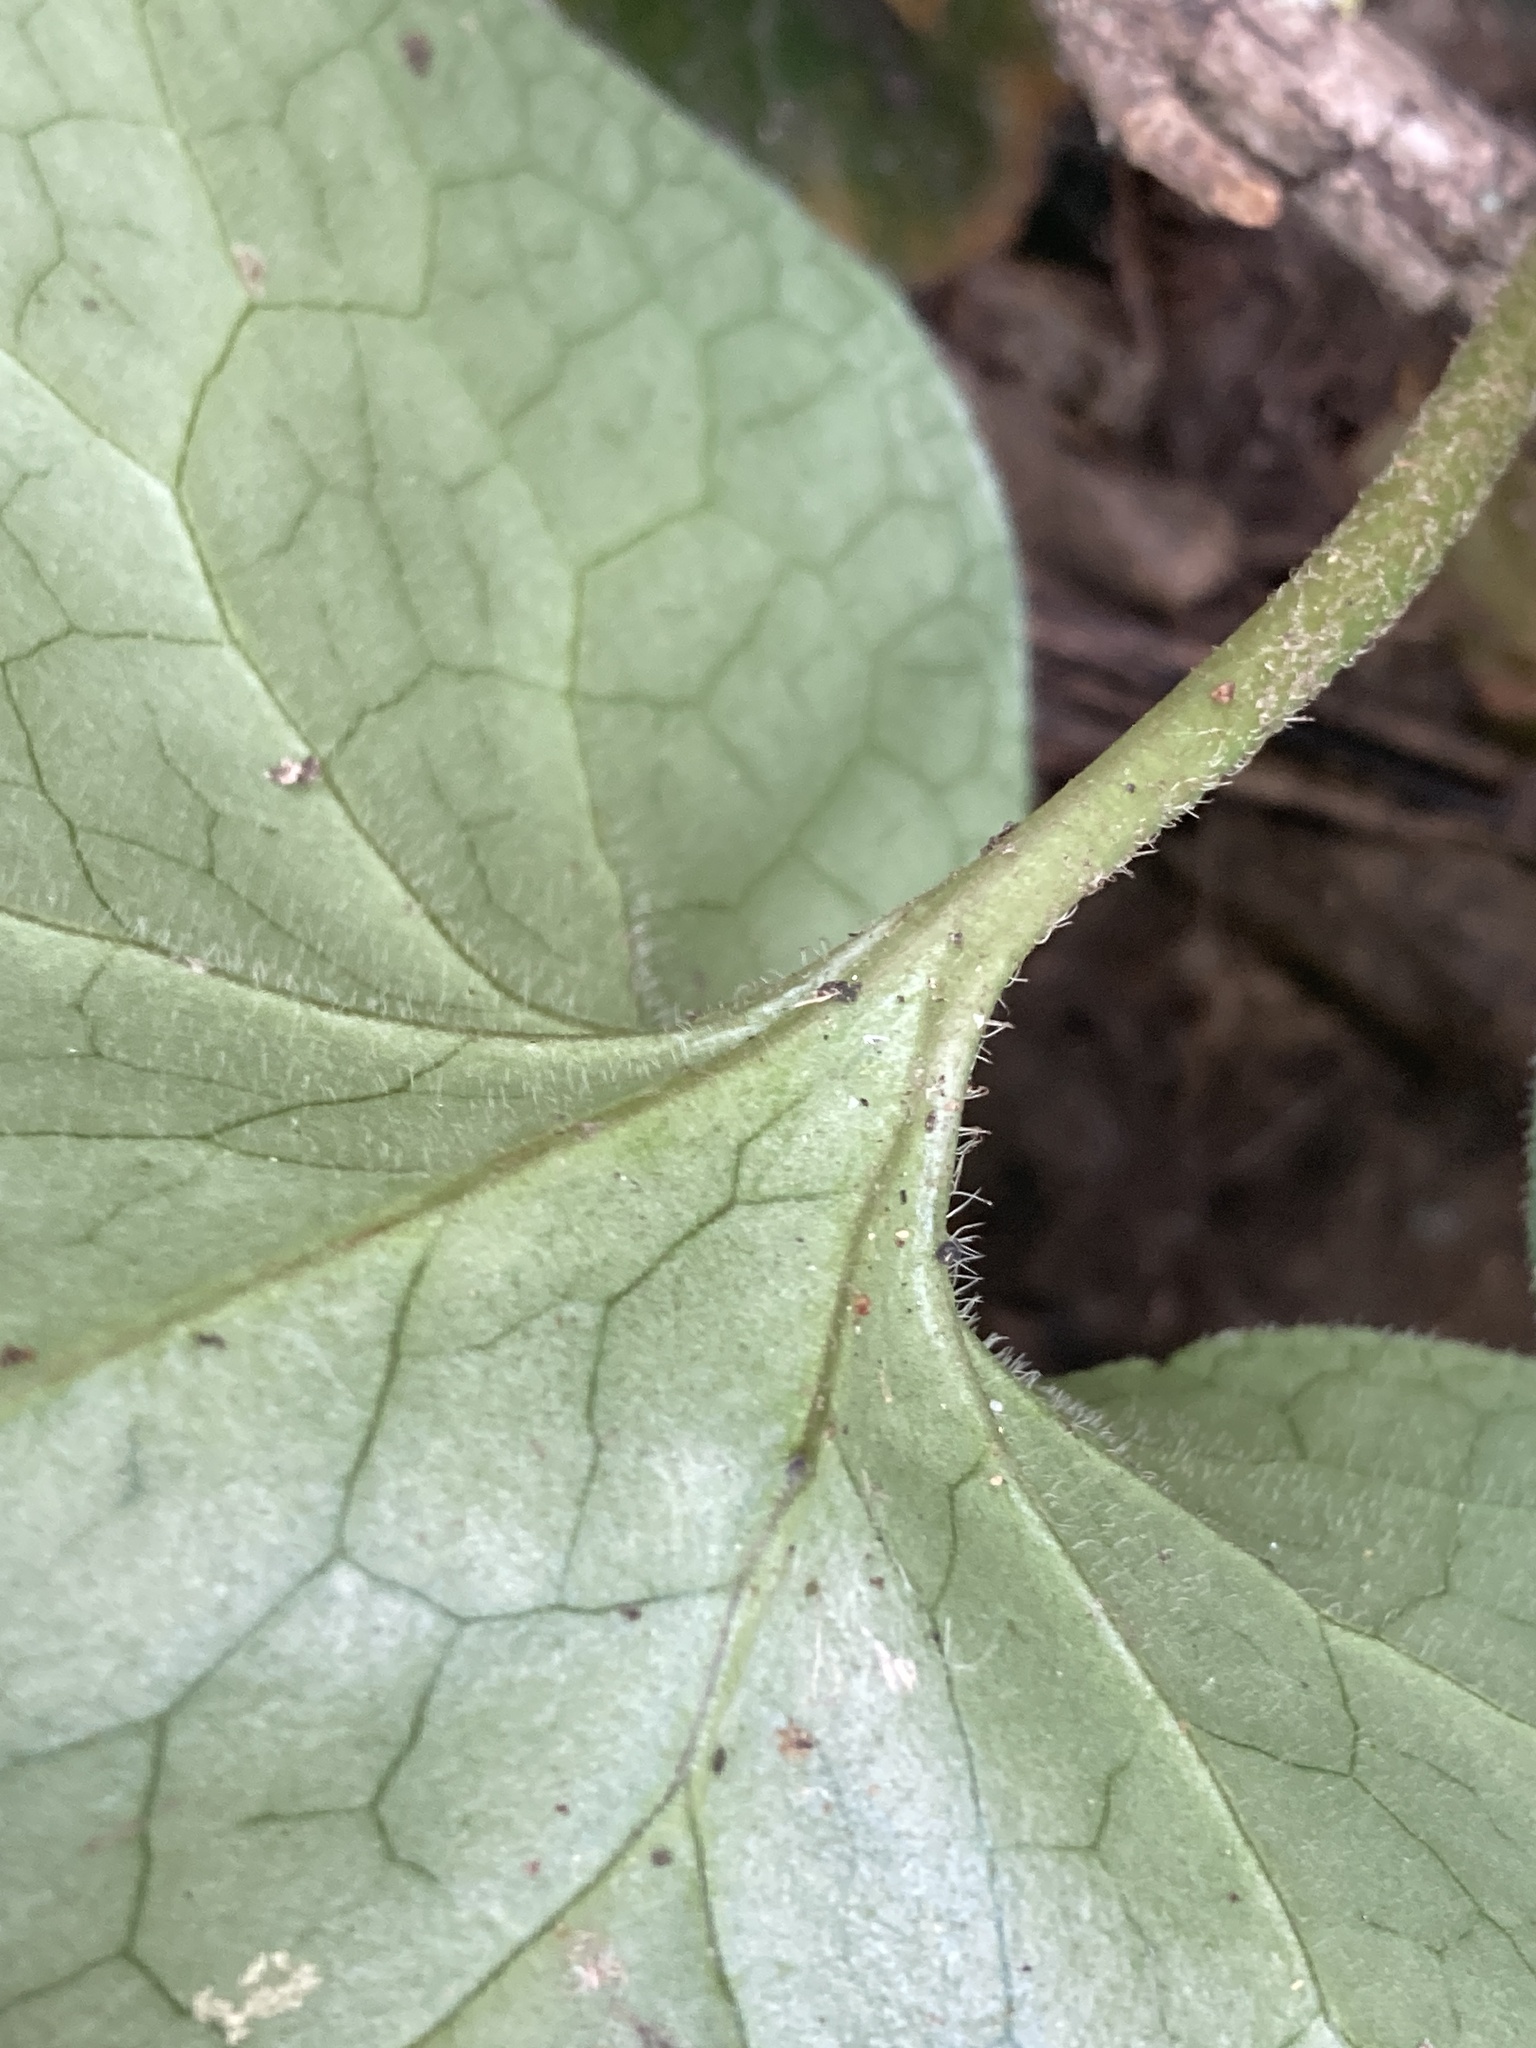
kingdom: Plantae
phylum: Tracheophyta
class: Magnoliopsida
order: Piperales
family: Aristolochiaceae
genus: Asarum
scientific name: Asarum europaeum
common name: Asarabacca
